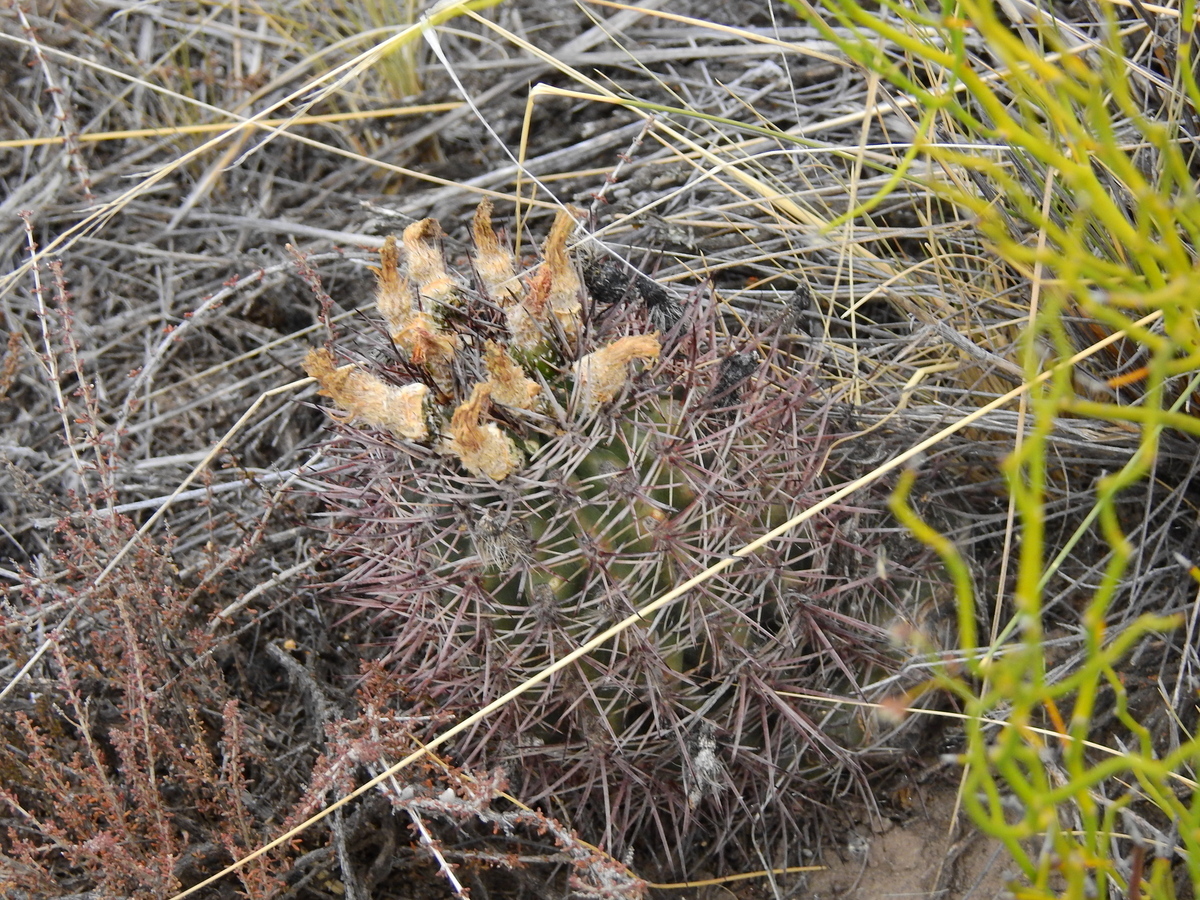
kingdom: Plantae
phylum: Tracheophyta
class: Magnoliopsida
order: Caryophyllales
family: Cactaceae
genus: Eriosyce
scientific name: Eriosyce strausiana
